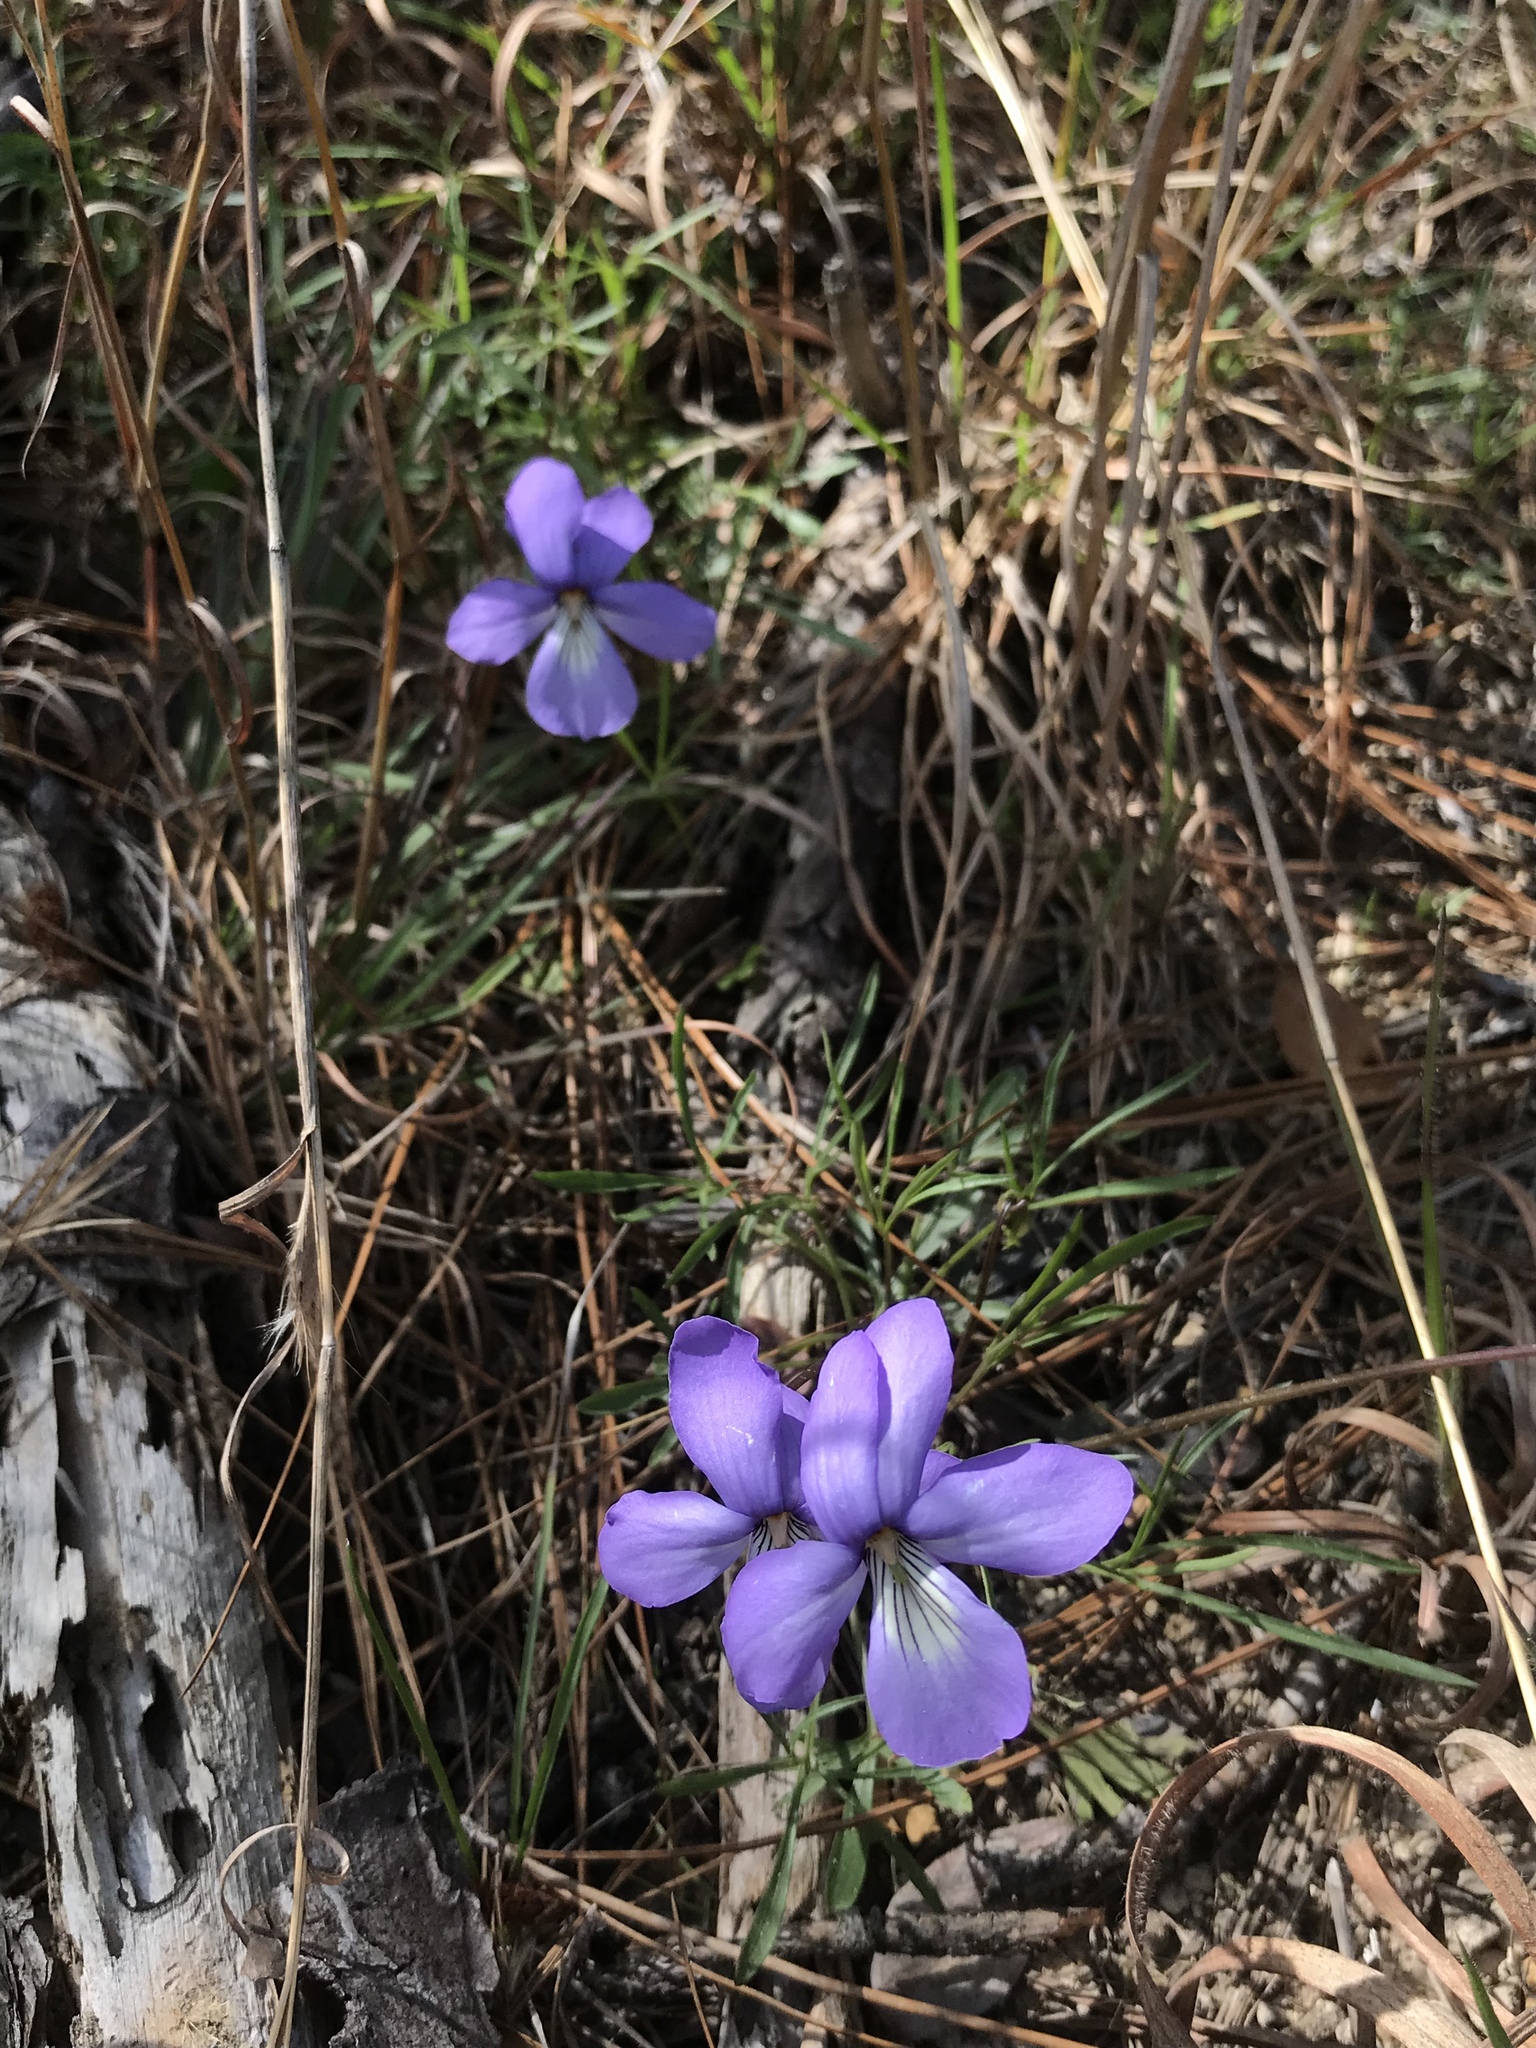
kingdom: Plantae
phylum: Tracheophyta
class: Magnoliopsida
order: Malpighiales
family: Violaceae
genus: Viola
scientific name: Viola pedata
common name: Pansy violet
